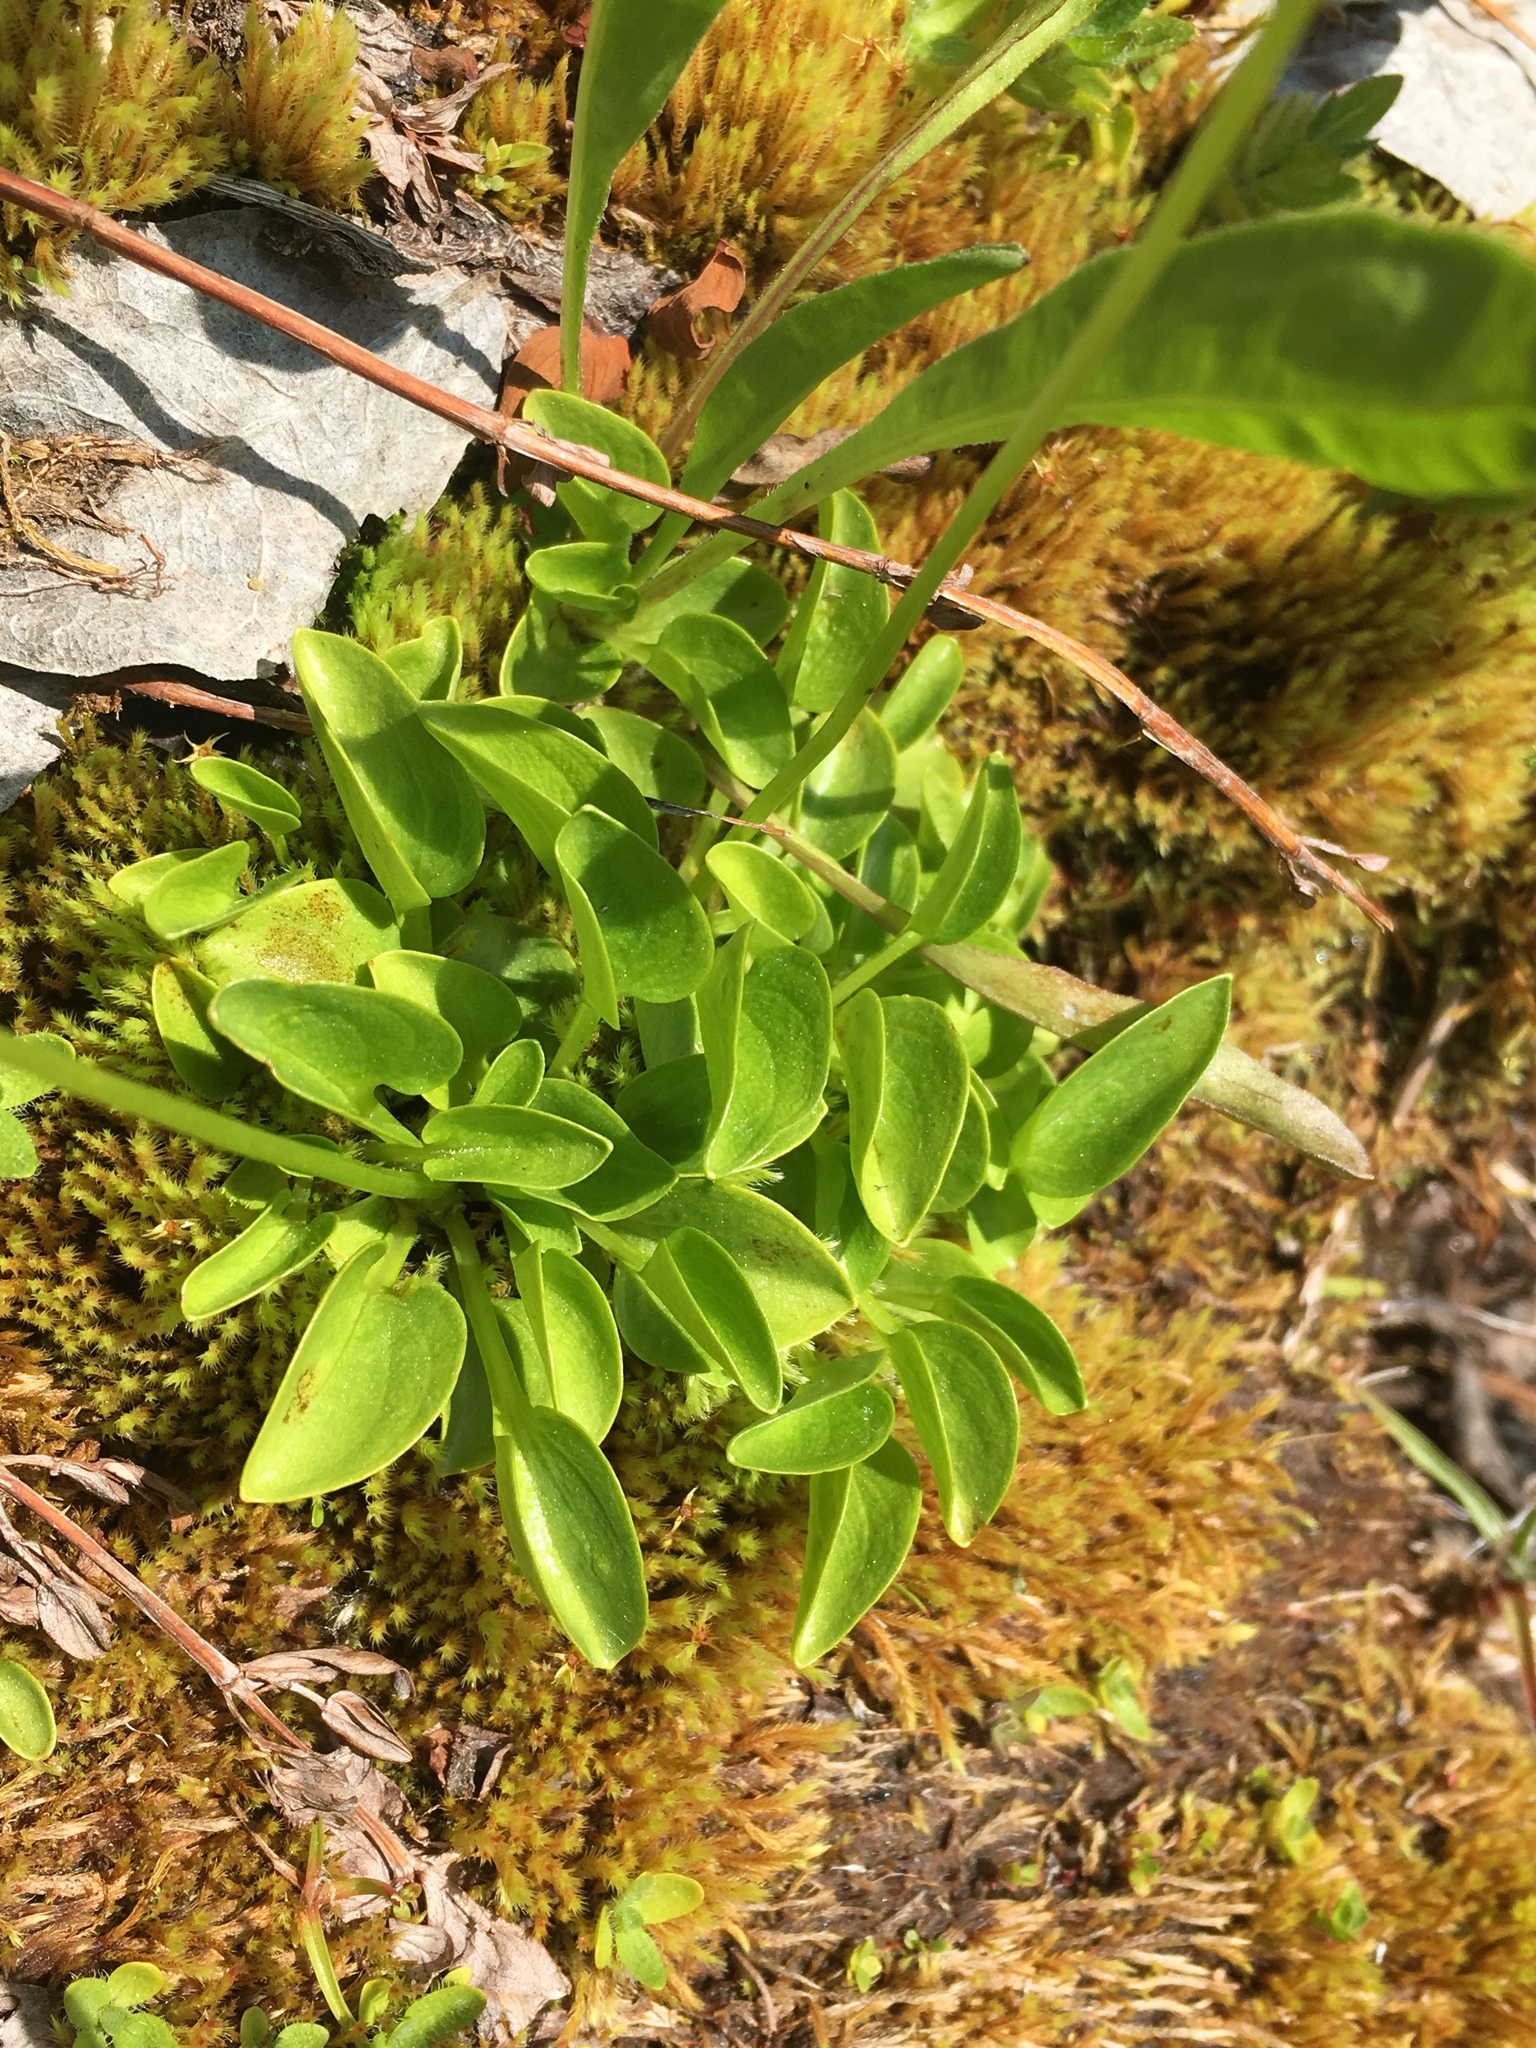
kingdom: Plantae
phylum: Tracheophyta
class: Magnoliopsida
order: Celastrales
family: Parnassiaceae
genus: Parnassia
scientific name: Parnassia cirrata
